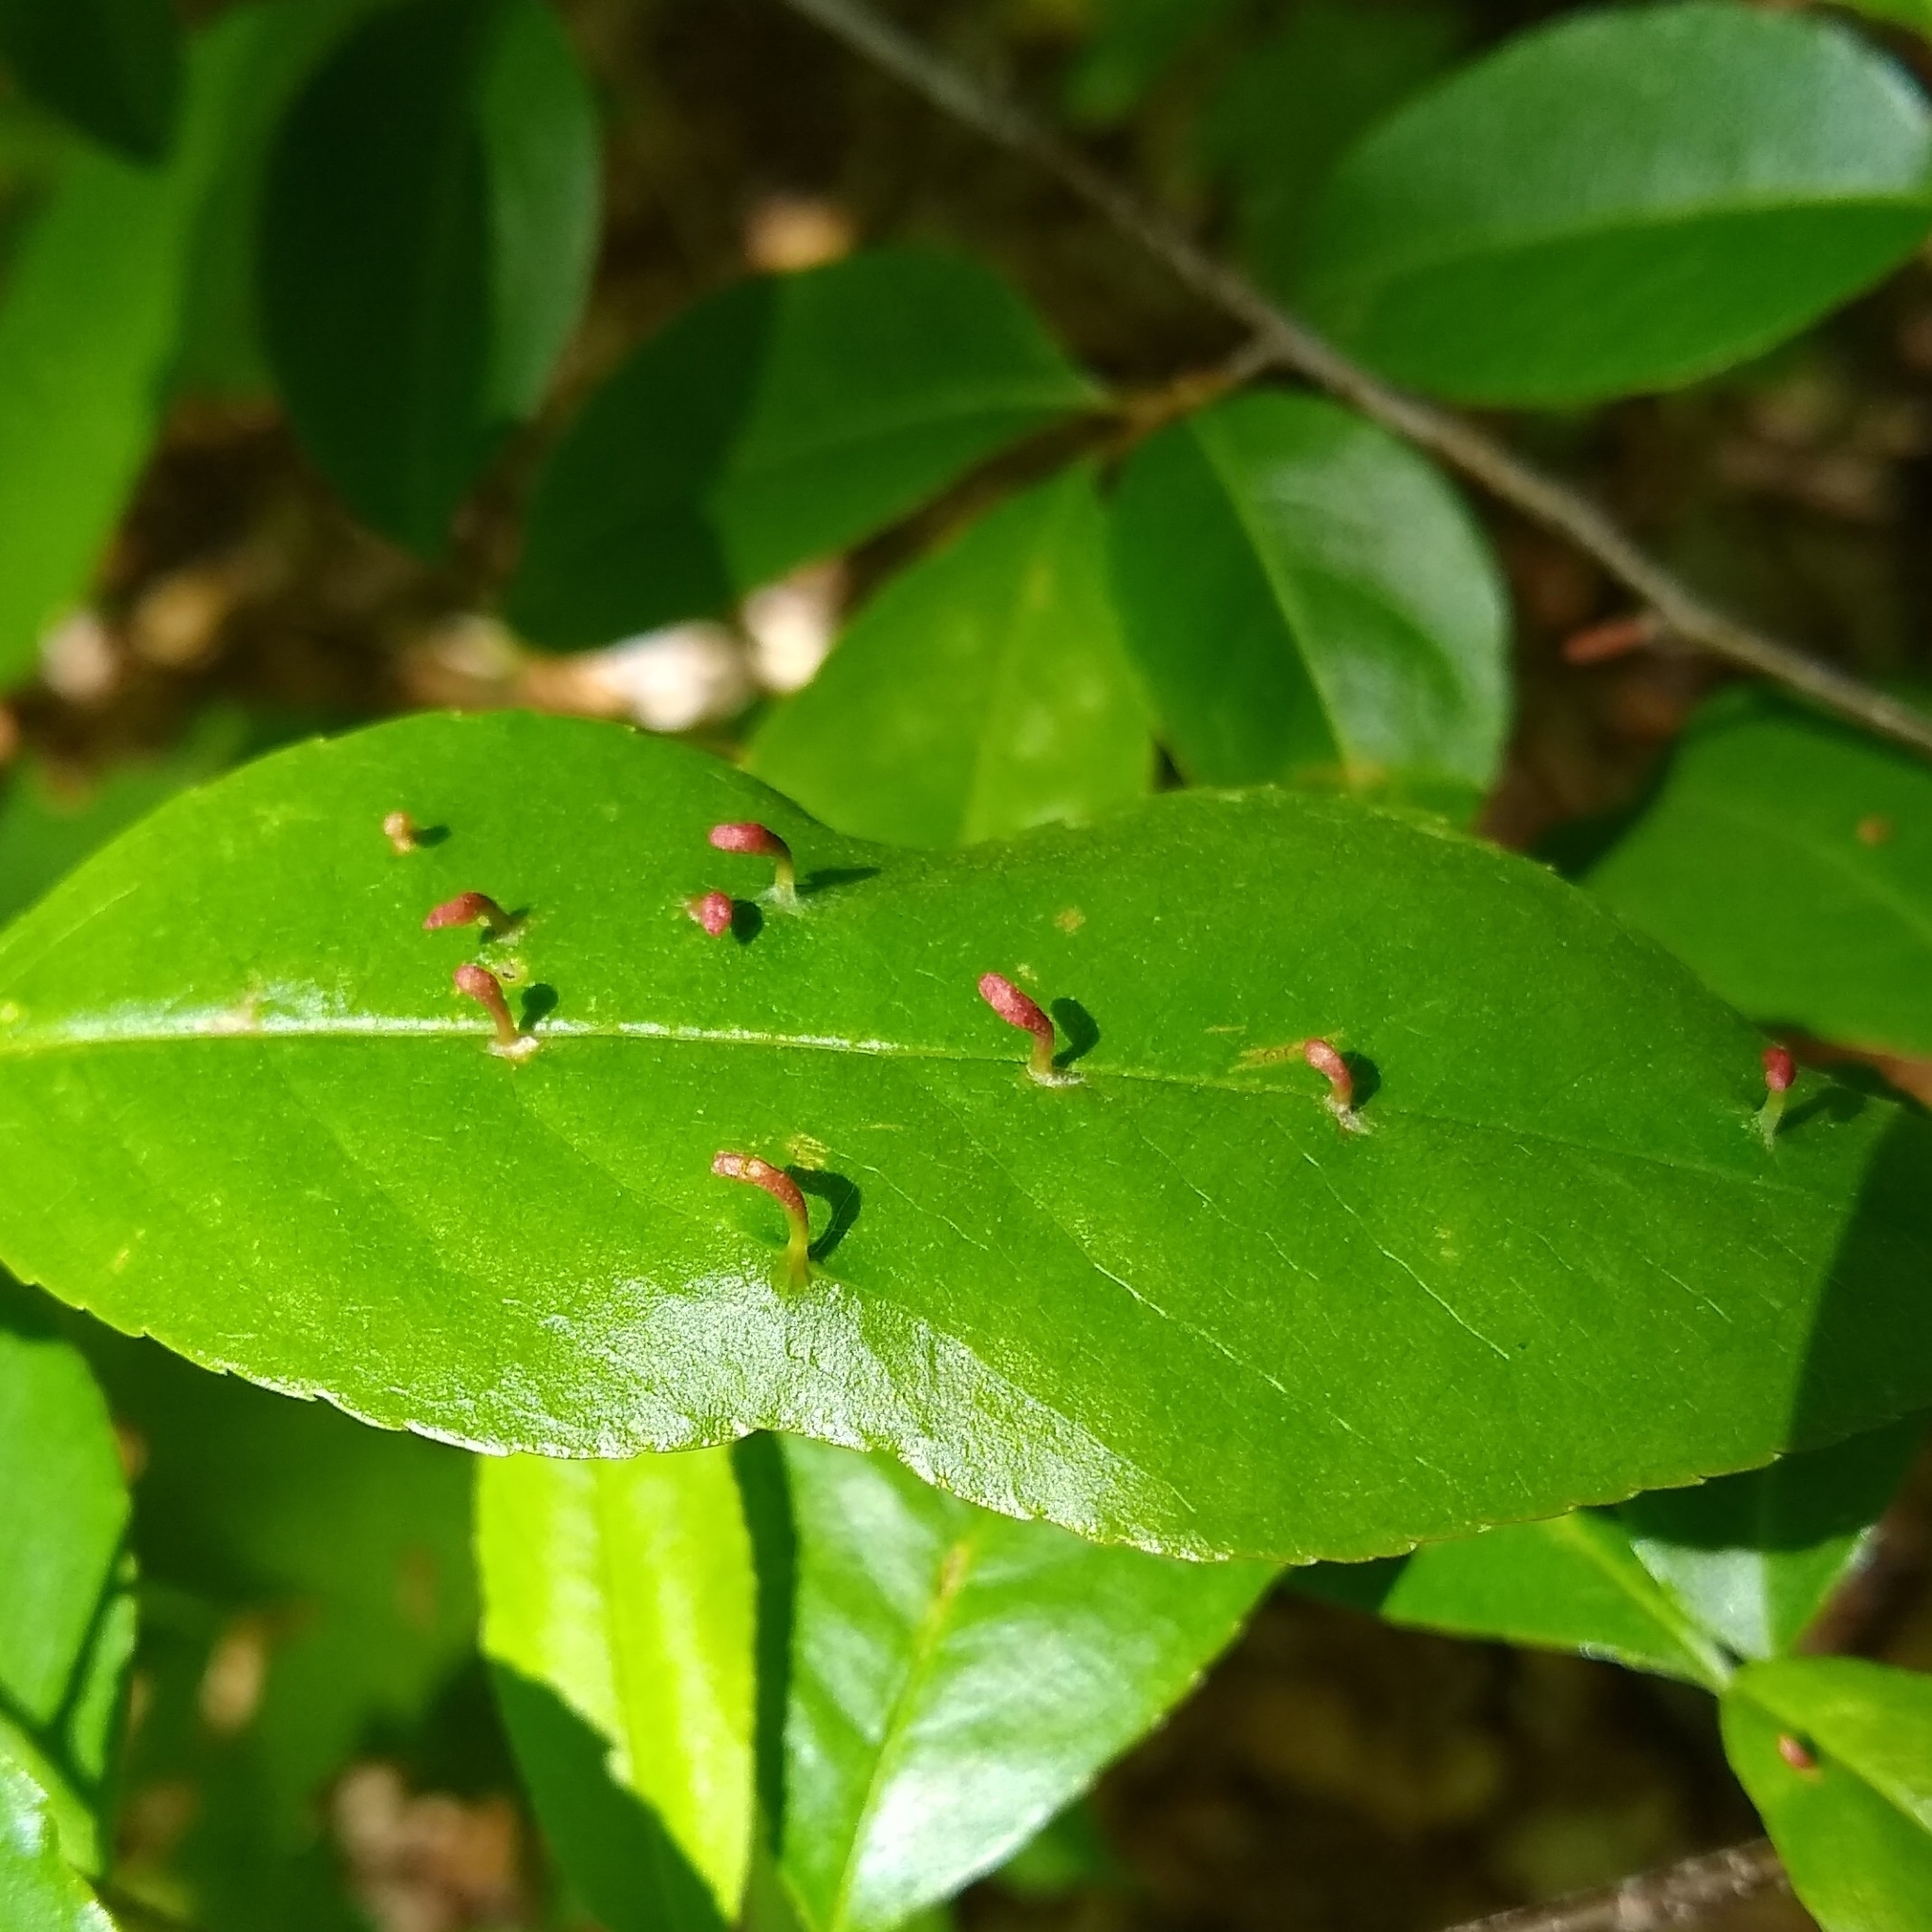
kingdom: Animalia
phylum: Arthropoda
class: Arachnida
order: Trombidiformes
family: Eriophyidae
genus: Eriophyes
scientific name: Eriophyes
